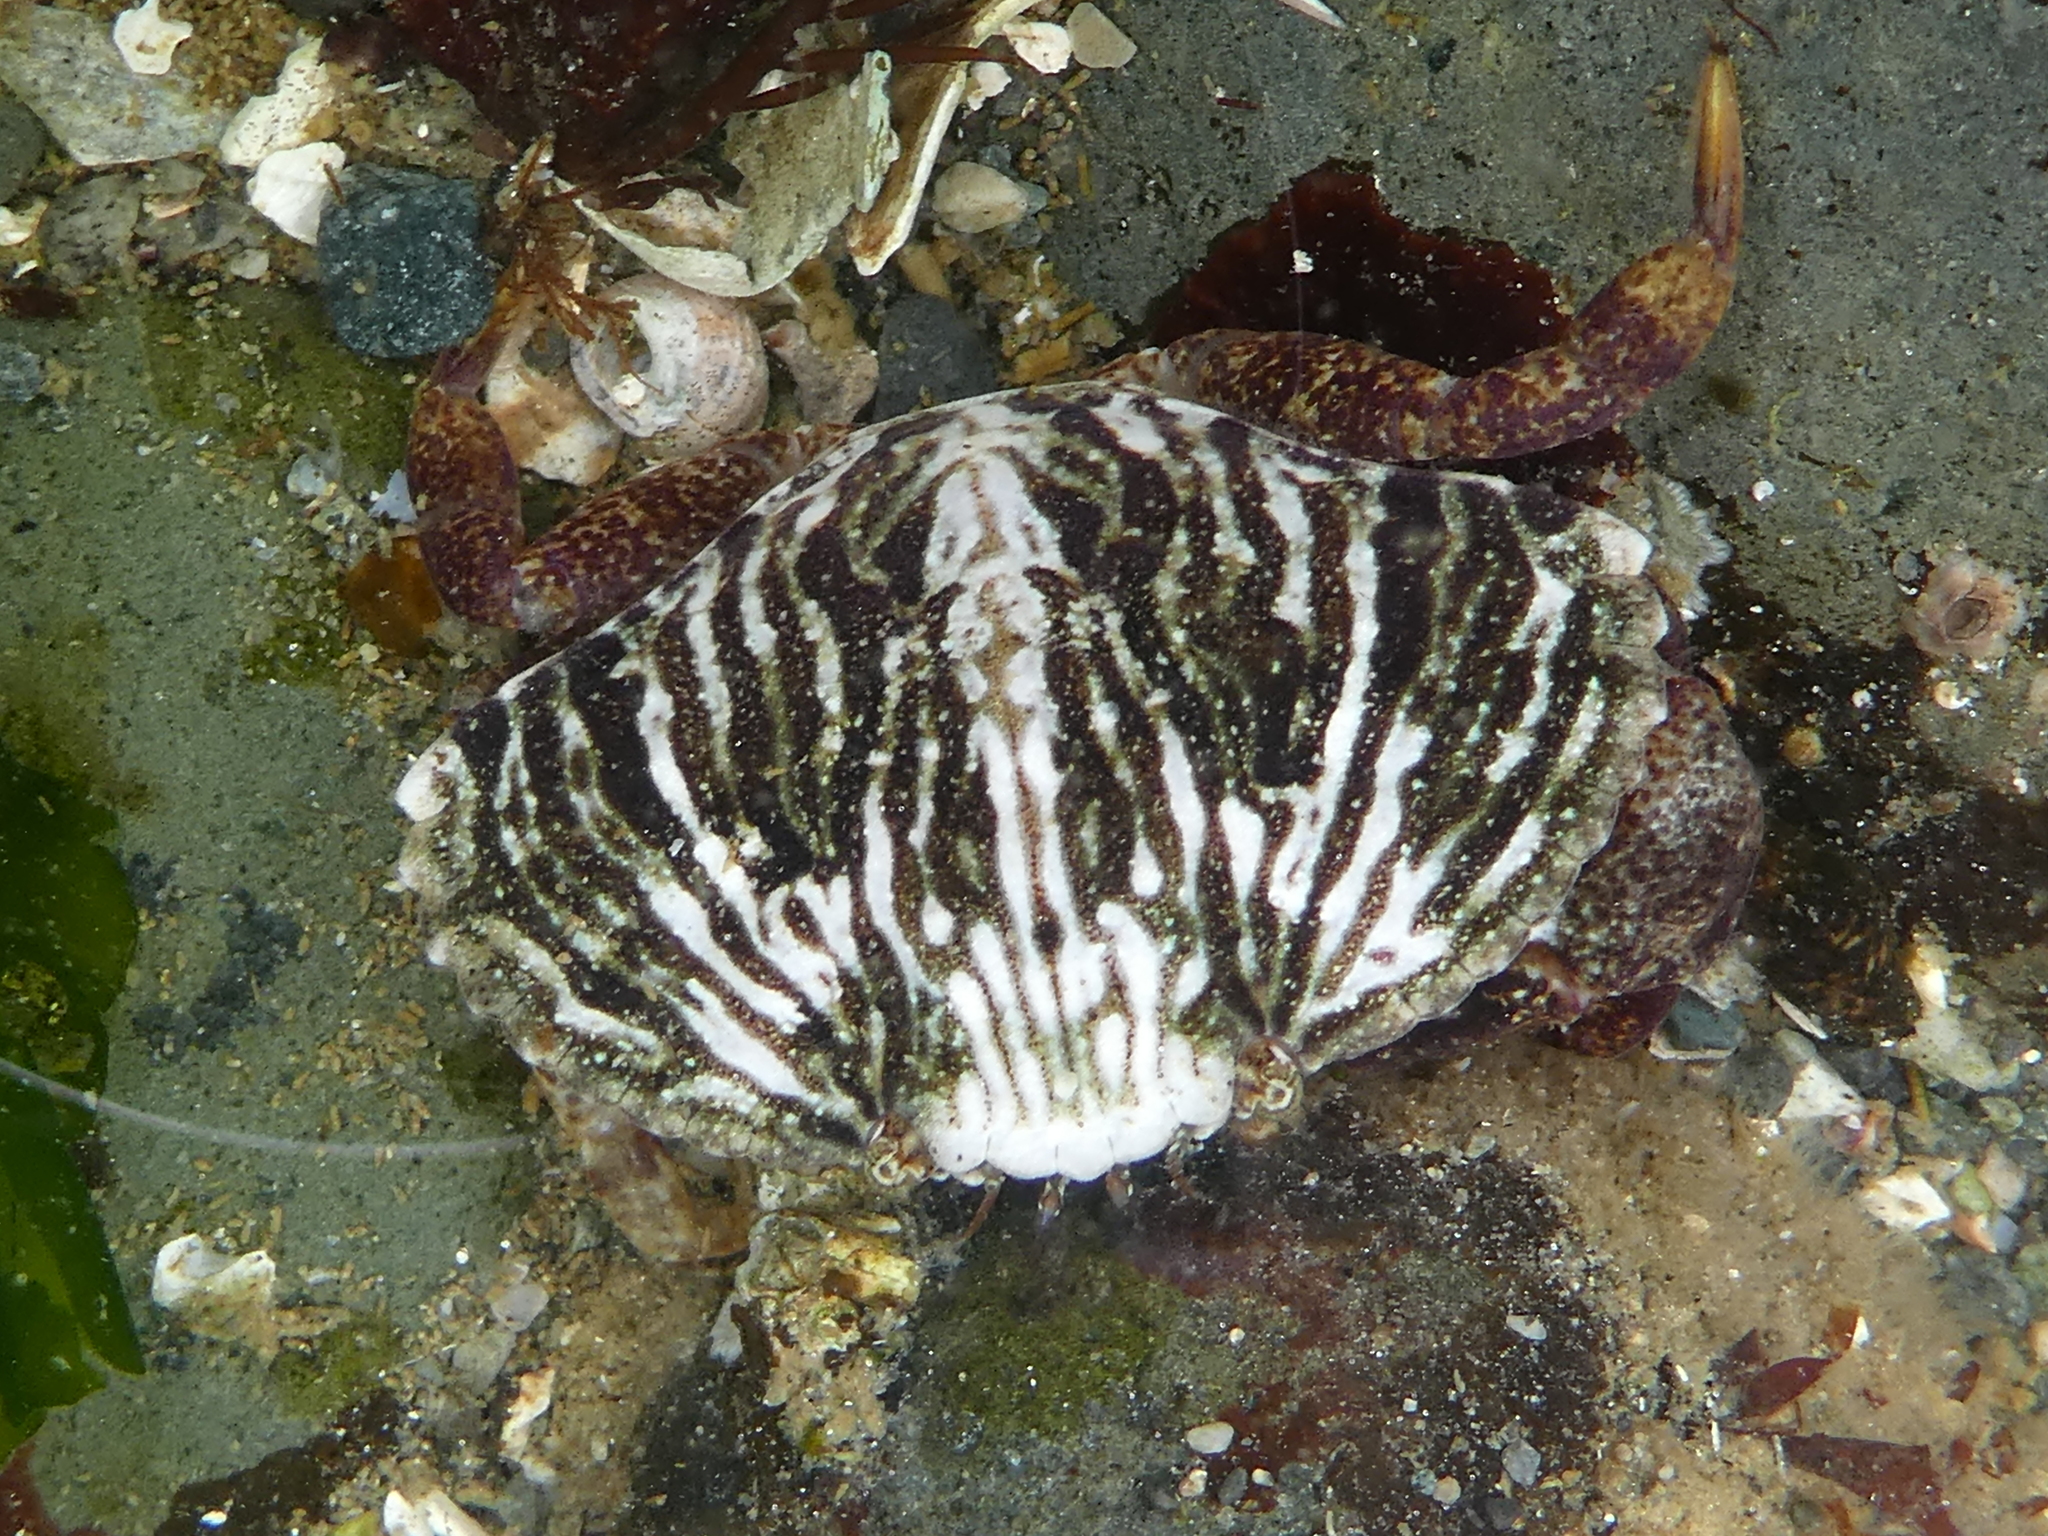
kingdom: Animalia
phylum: Arthropoda
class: Malacostraca
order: Decapoda
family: Cancridae
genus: Cancer
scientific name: Cancer productus
